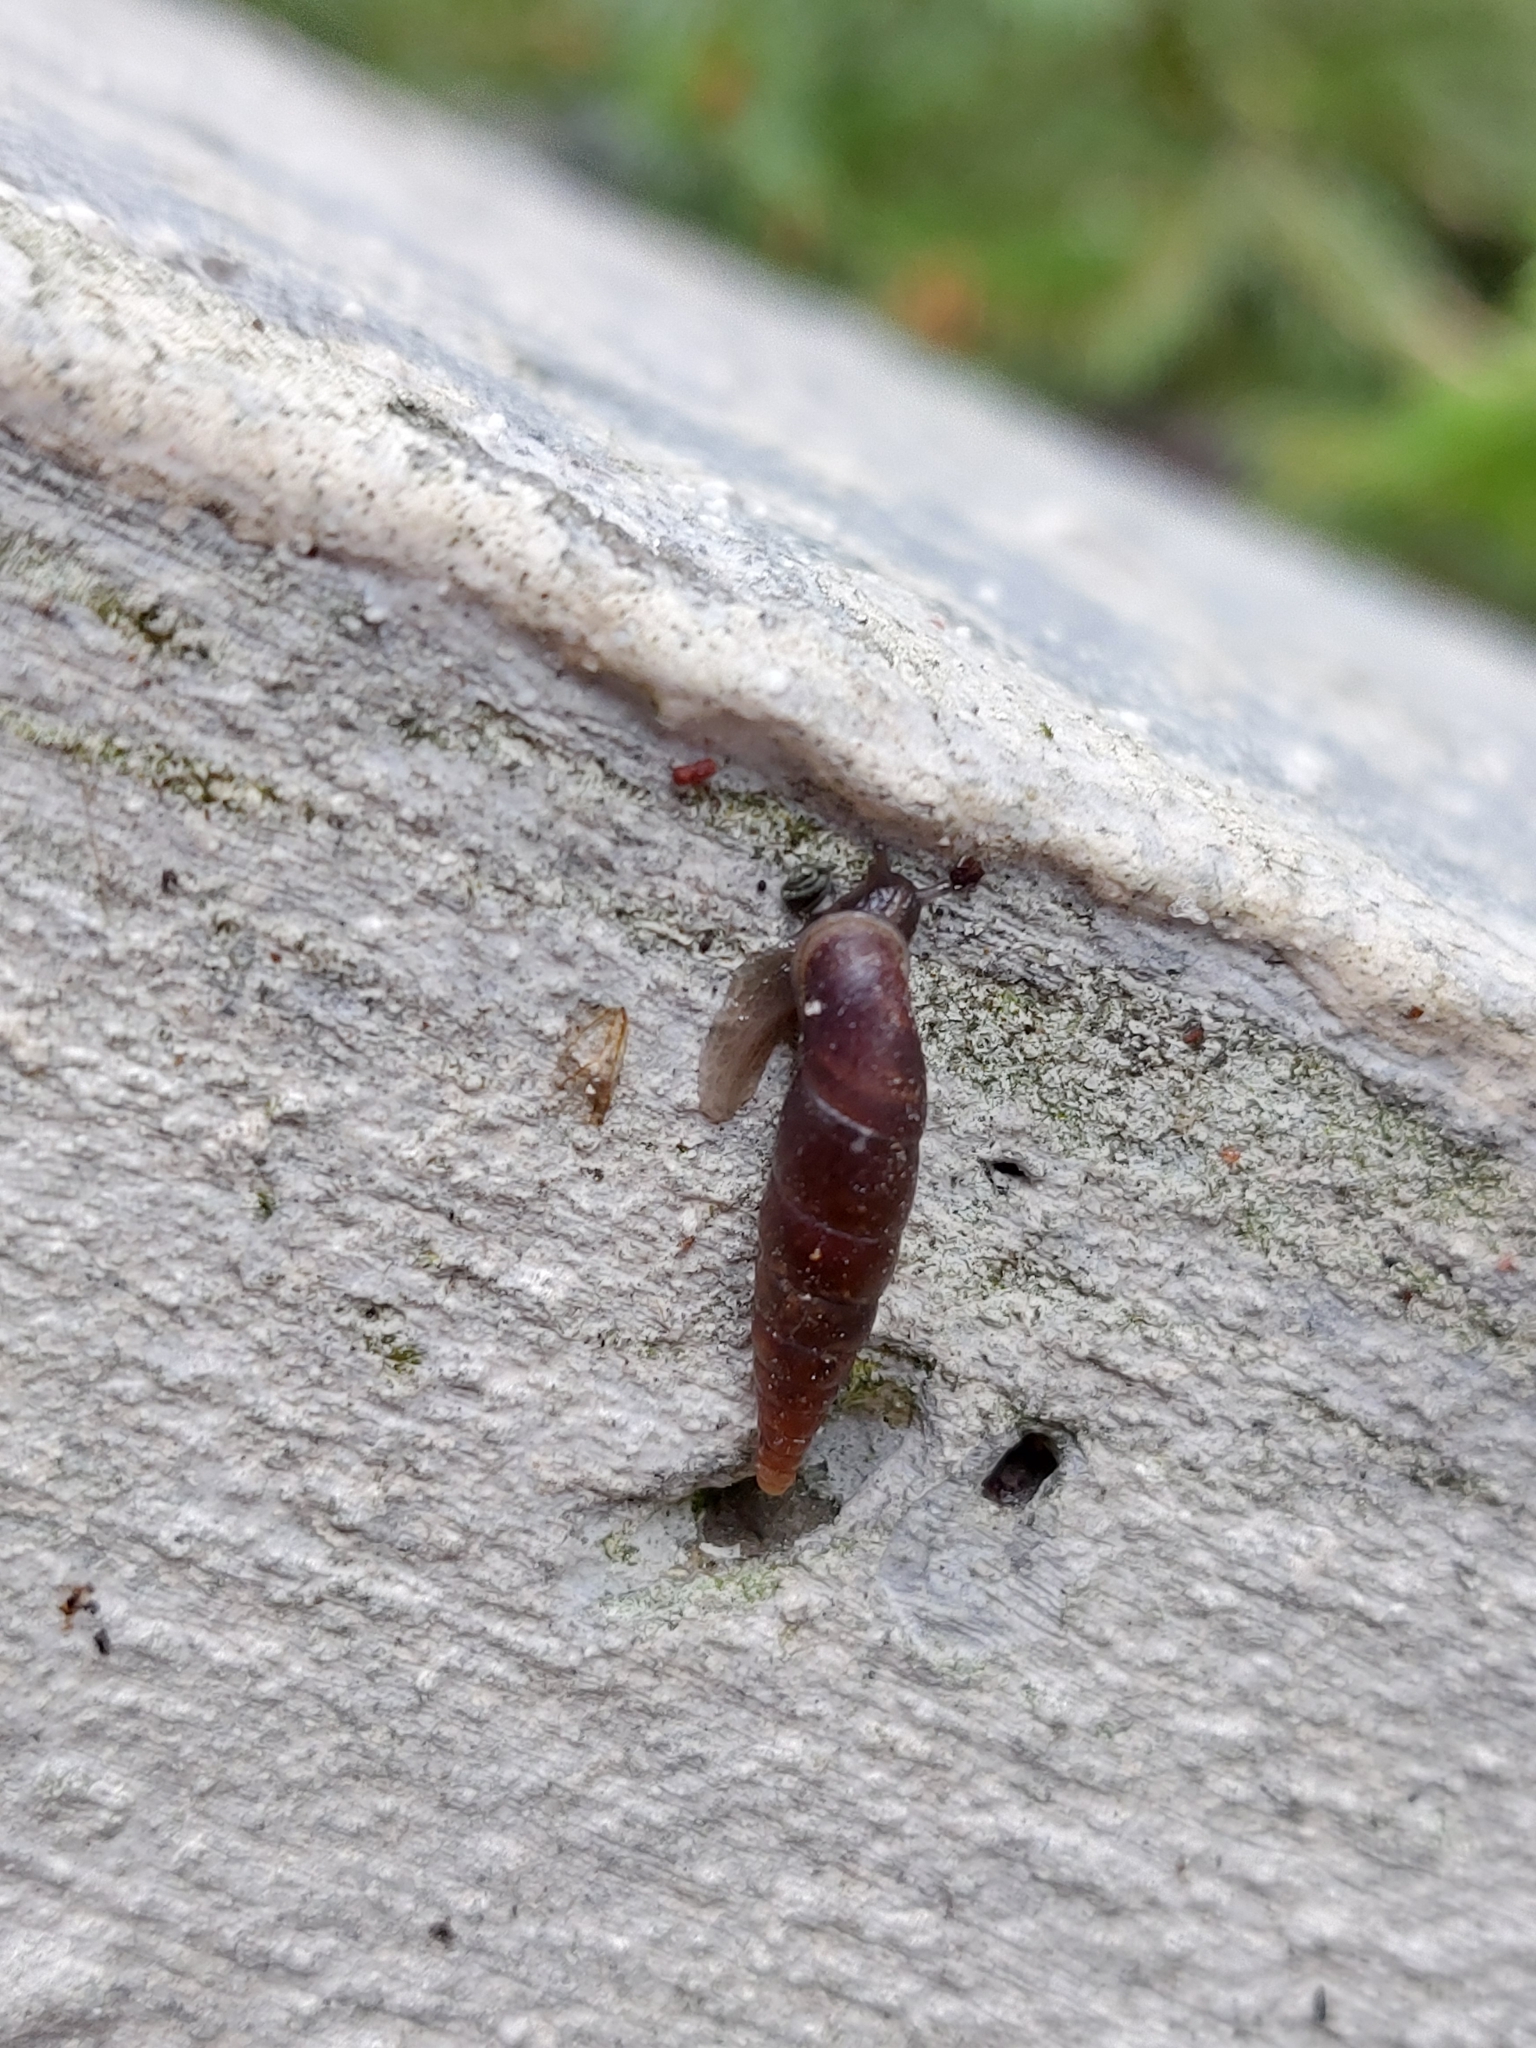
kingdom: Animalia
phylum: Mollusca
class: Gastropoda
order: Stylommatophora
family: Clausiliidae
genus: Cochlodina
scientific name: Cochlodina laminata
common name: Plaited door snail
